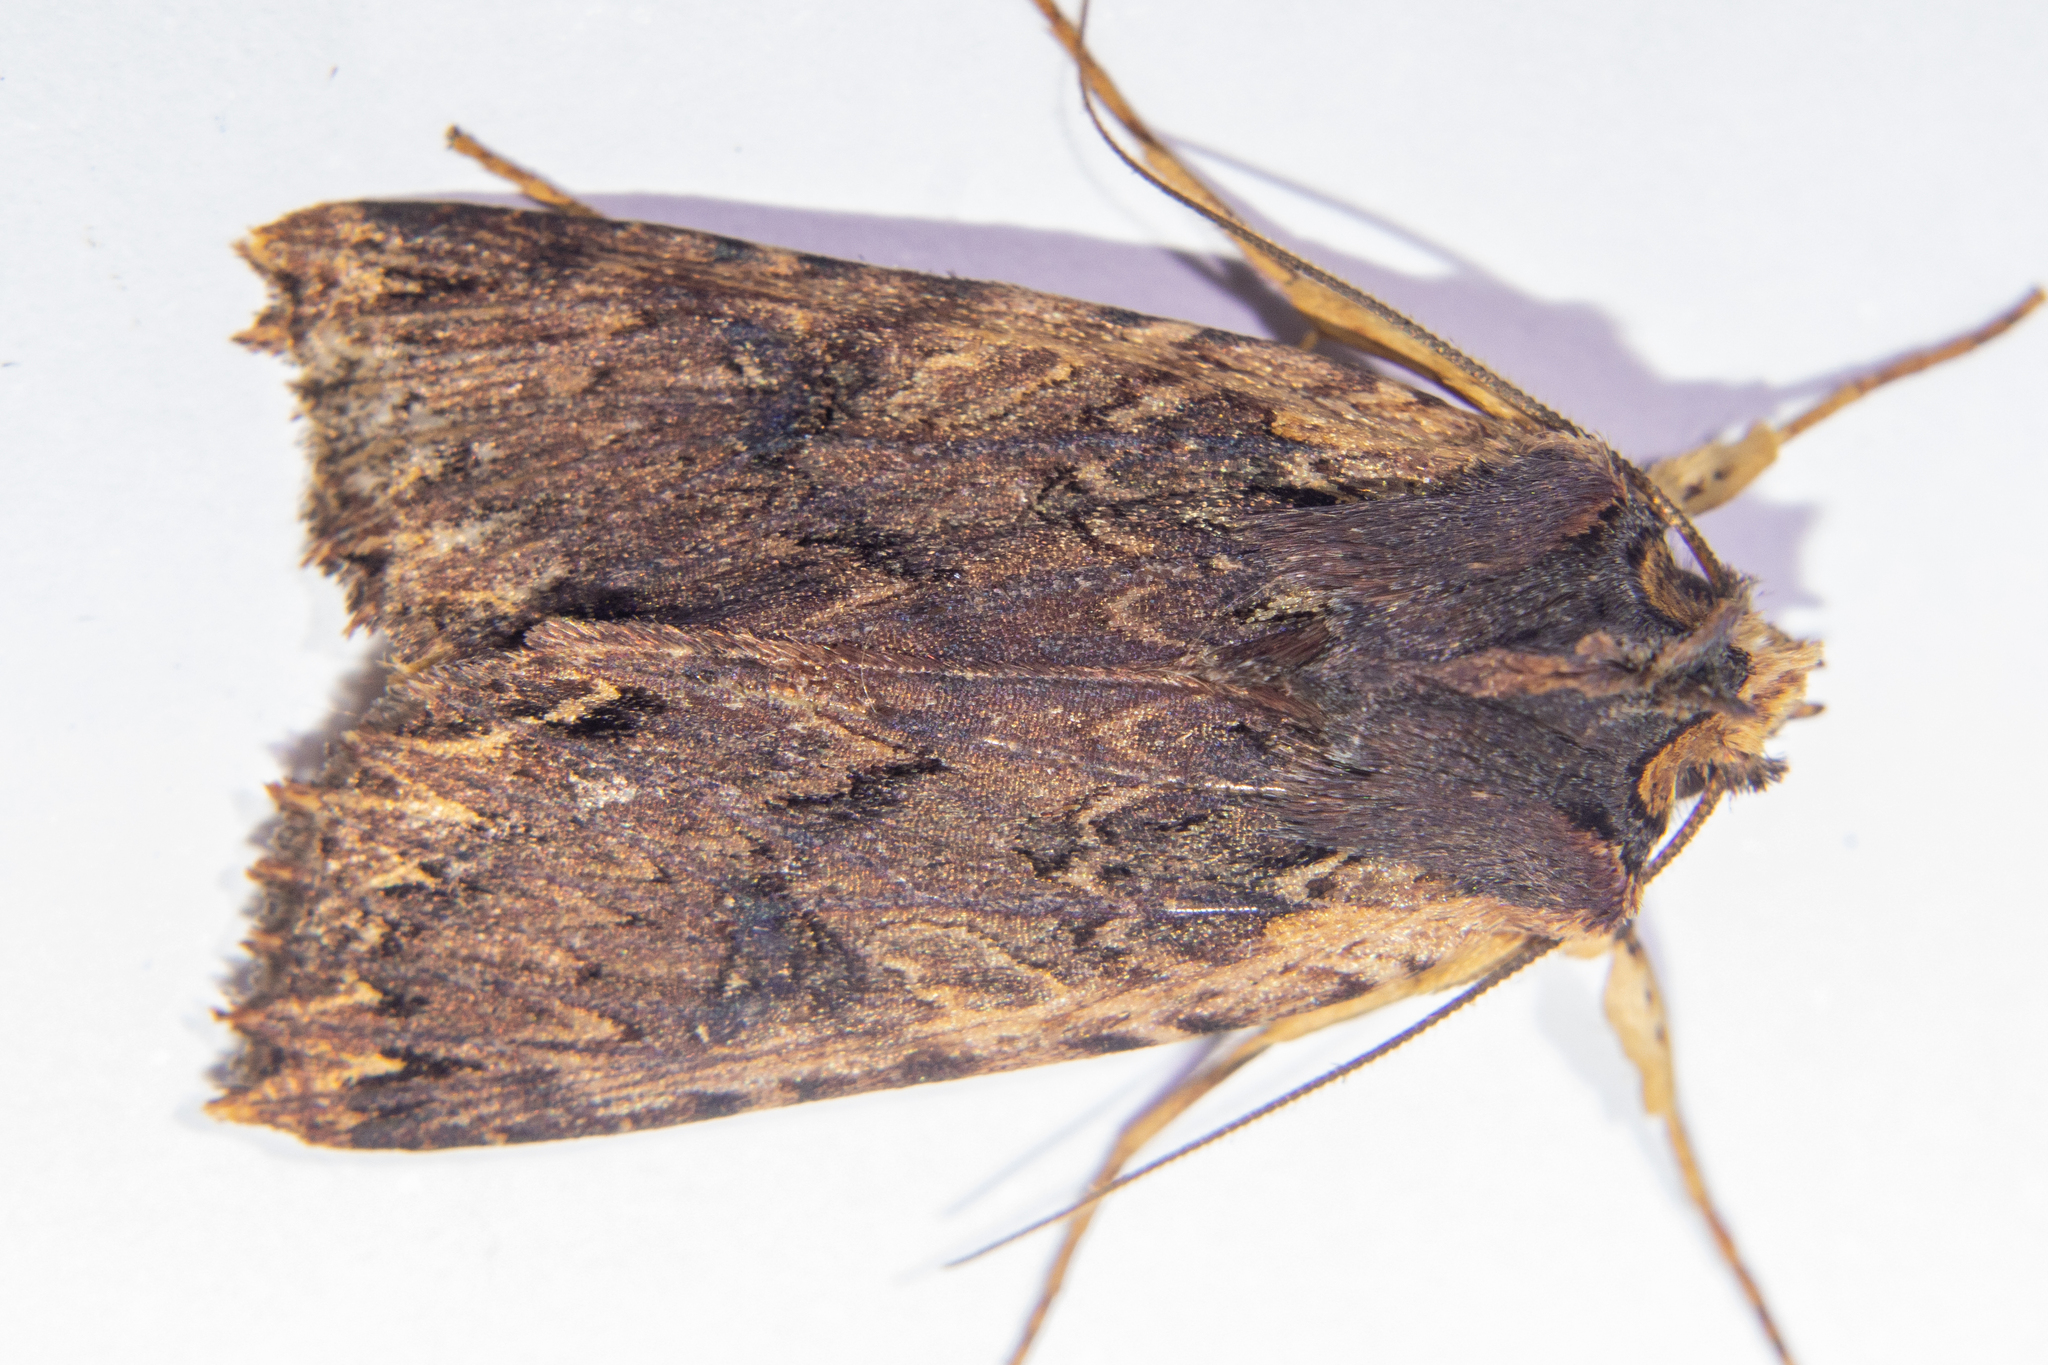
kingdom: Animalia
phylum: Arthropoda
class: Insecta
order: Lepidoptera
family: Noctuidae
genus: Meterana
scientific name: Meterana alcyone
